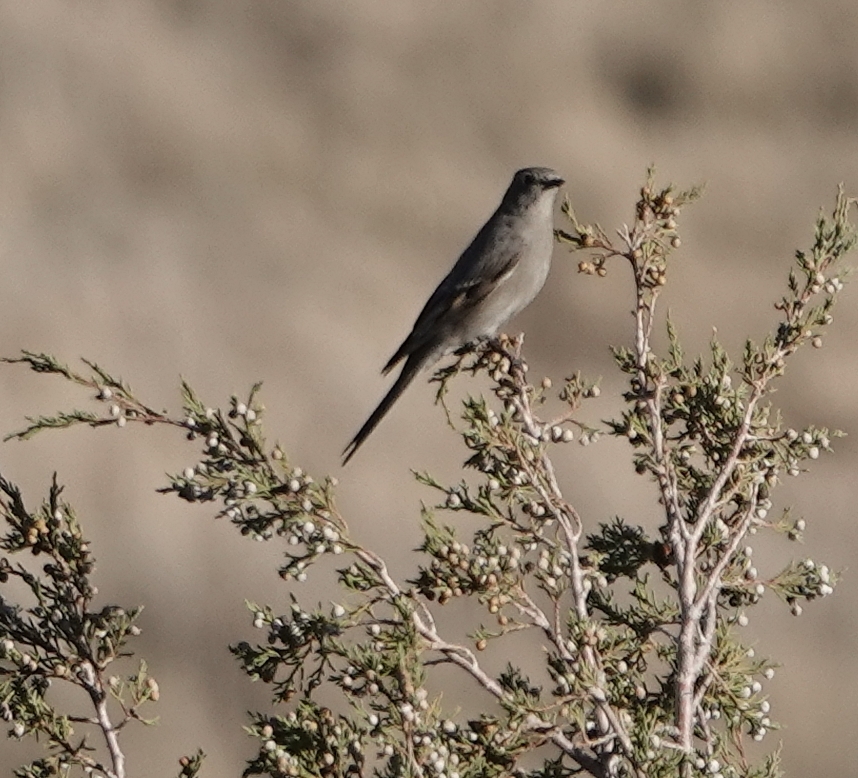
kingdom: Animalia
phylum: Chordata
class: Aves
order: Passeriformes
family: Turdidae
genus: Myadestes
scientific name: Myadestes townsendi
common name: Townsend's solitaire
